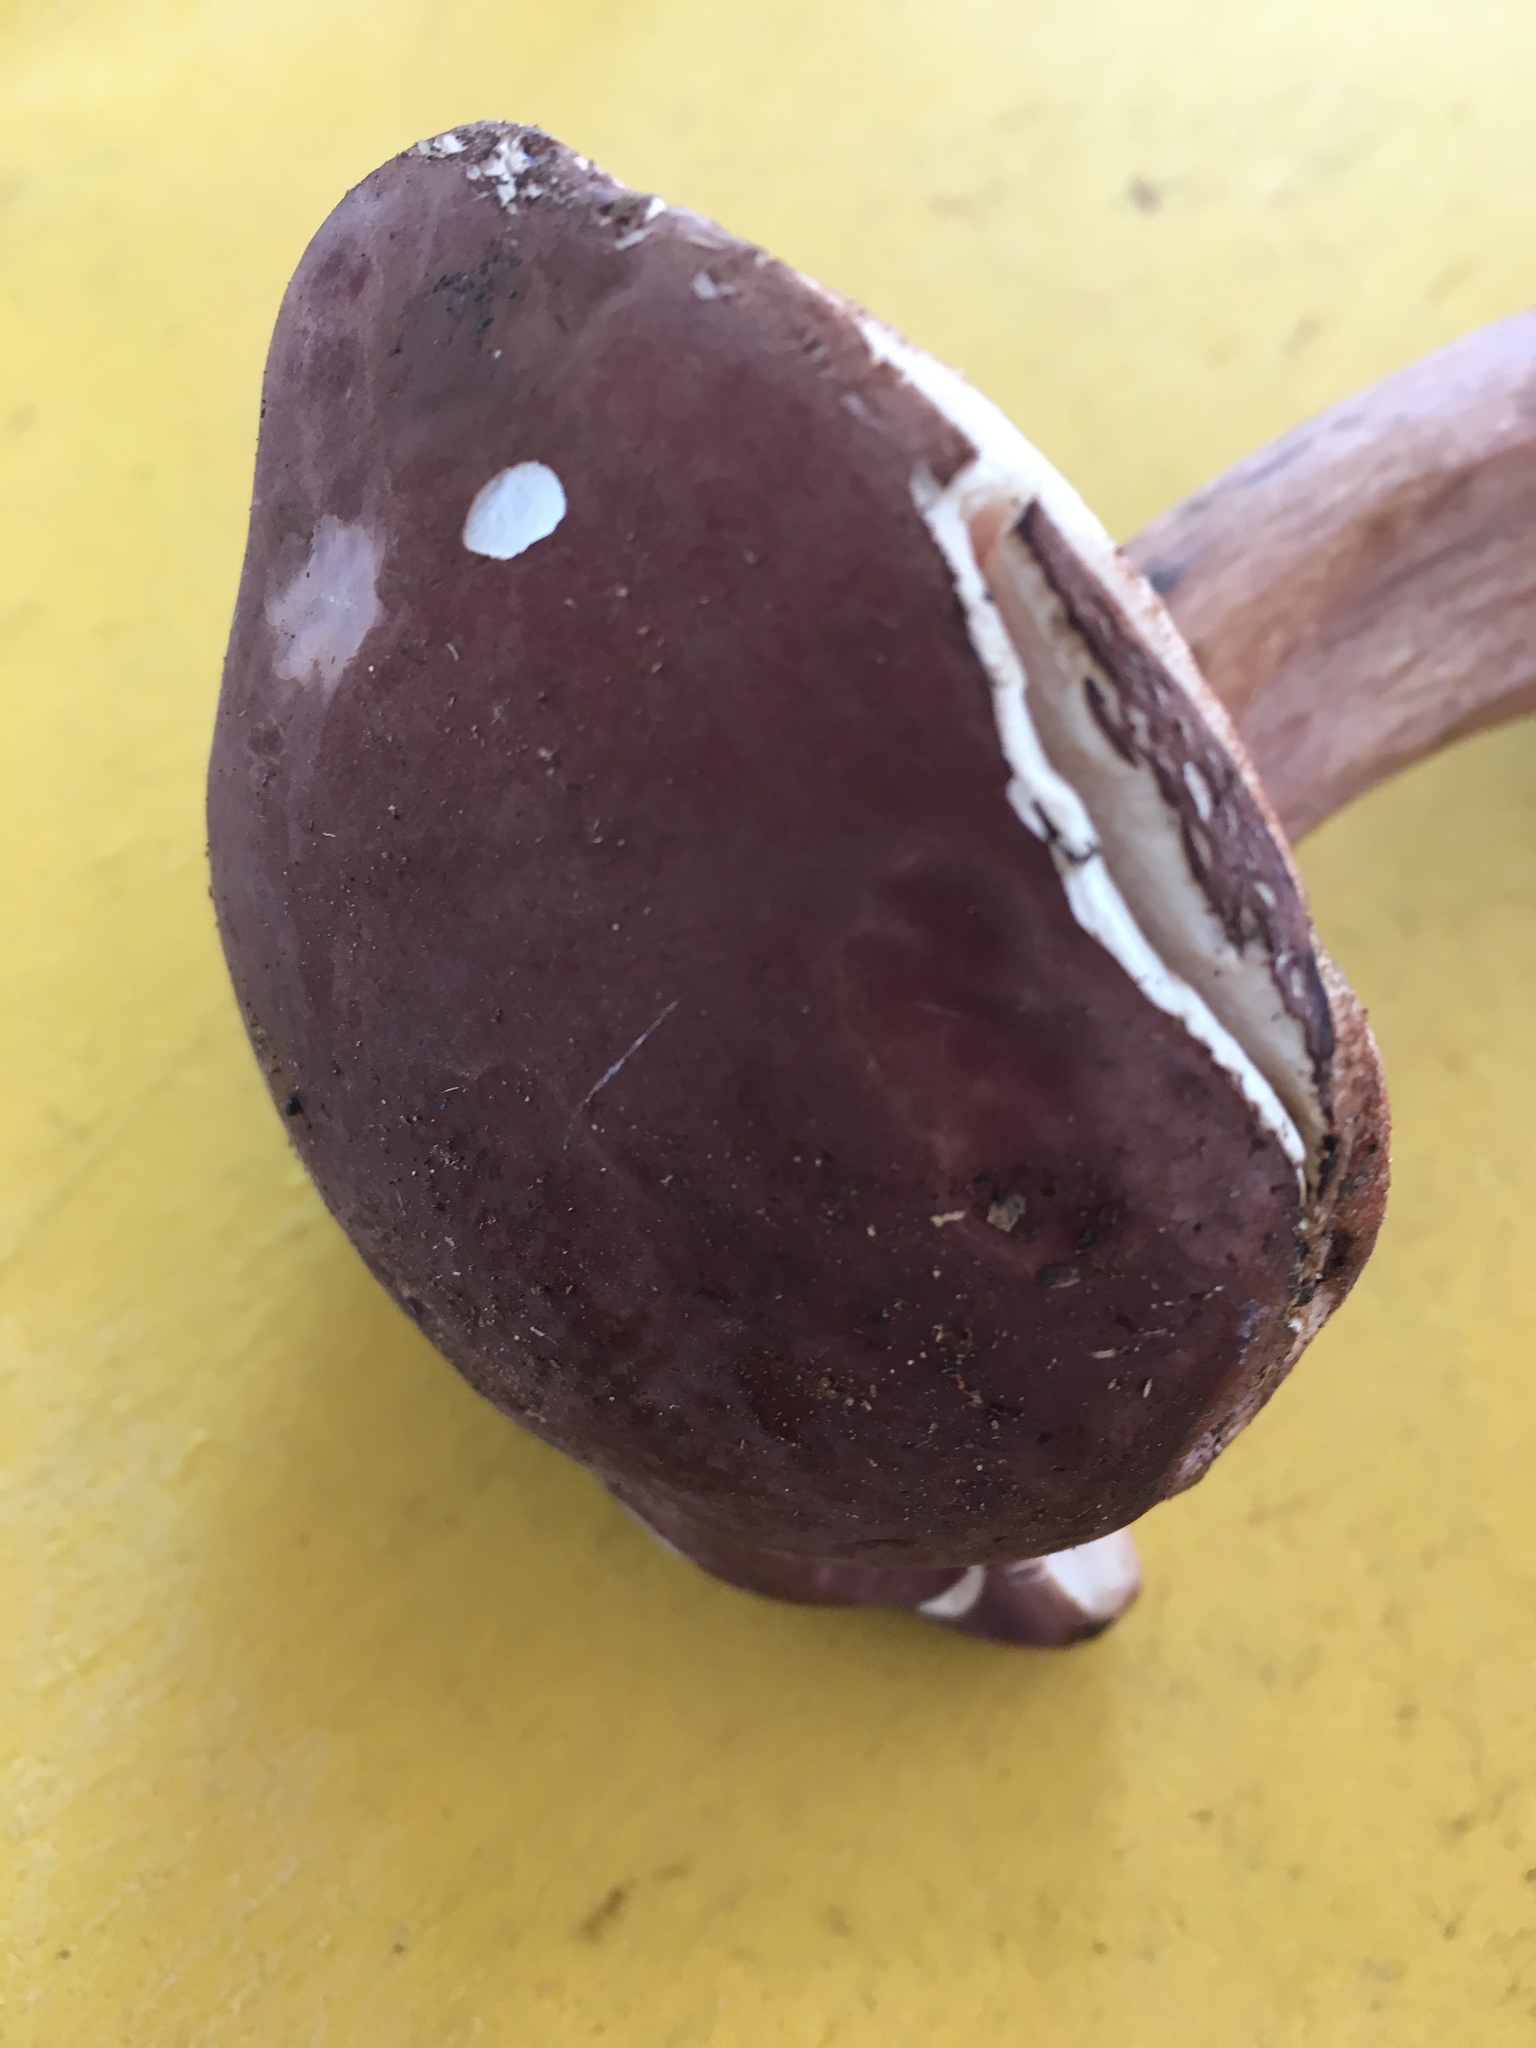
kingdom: Fungi
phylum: Basidiomycota
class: Agaricomycetes
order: Boletales
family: Boletaceae
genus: Tylopilus
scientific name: Tylopilus rubrobrunneus
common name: Reddish brown bitter bolete
